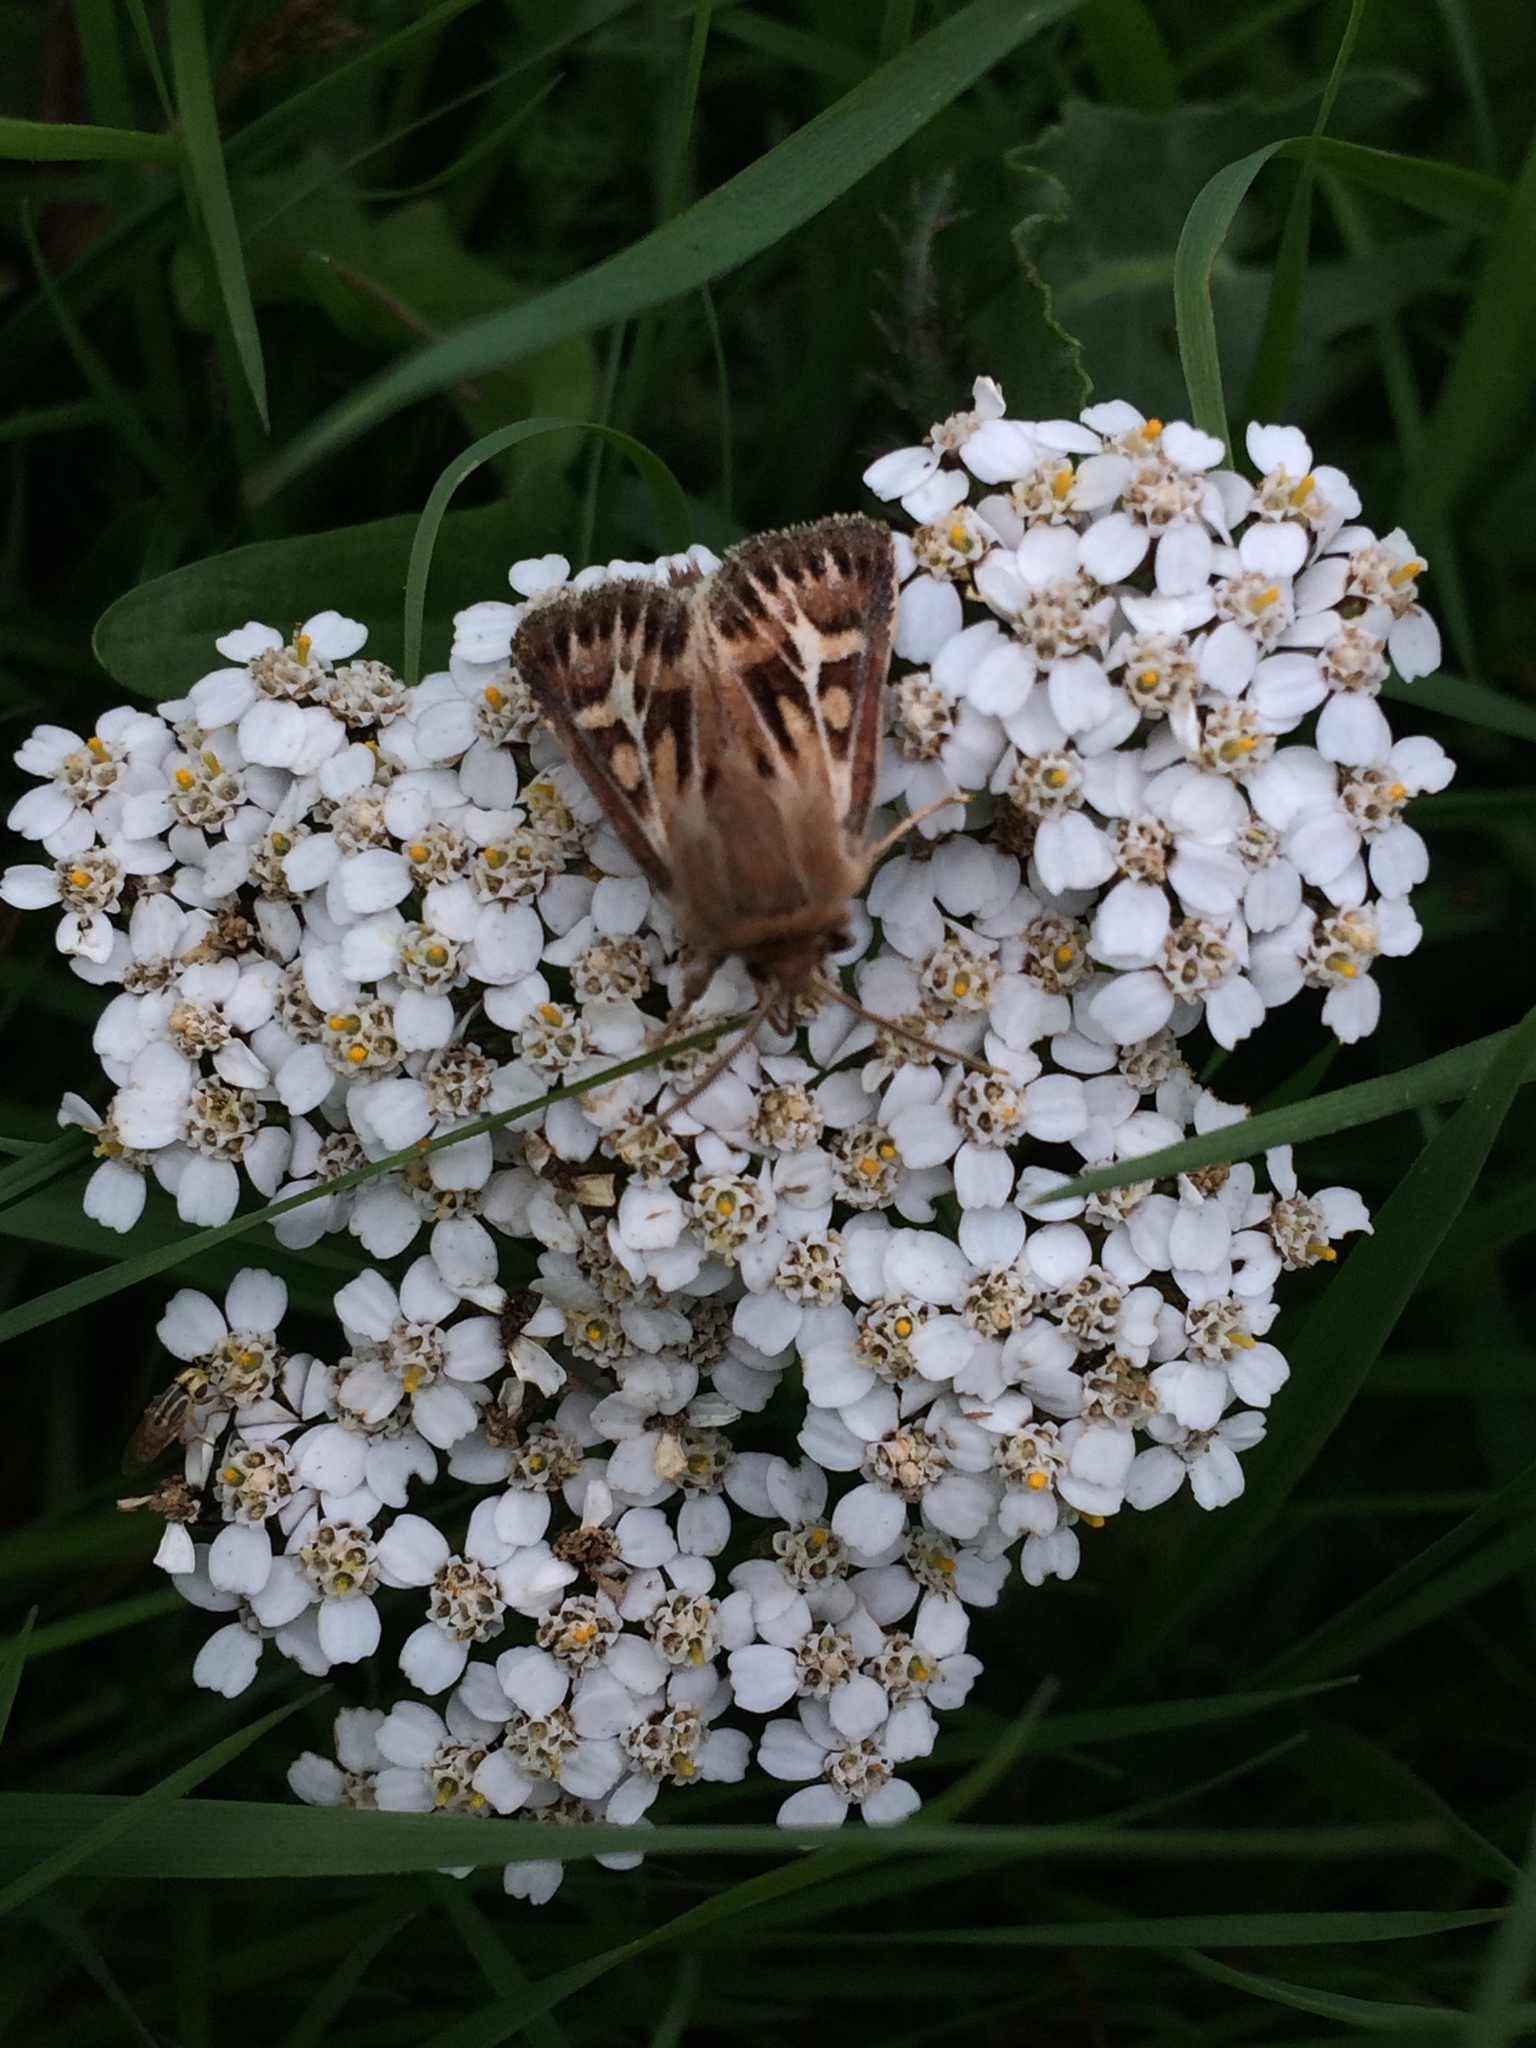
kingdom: Animalia
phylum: Arthropoda
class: Insecta
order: Lepidoptera
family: Noctuidae
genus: Cerapteryx
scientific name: Cerapteryx graminis
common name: Antler moth
